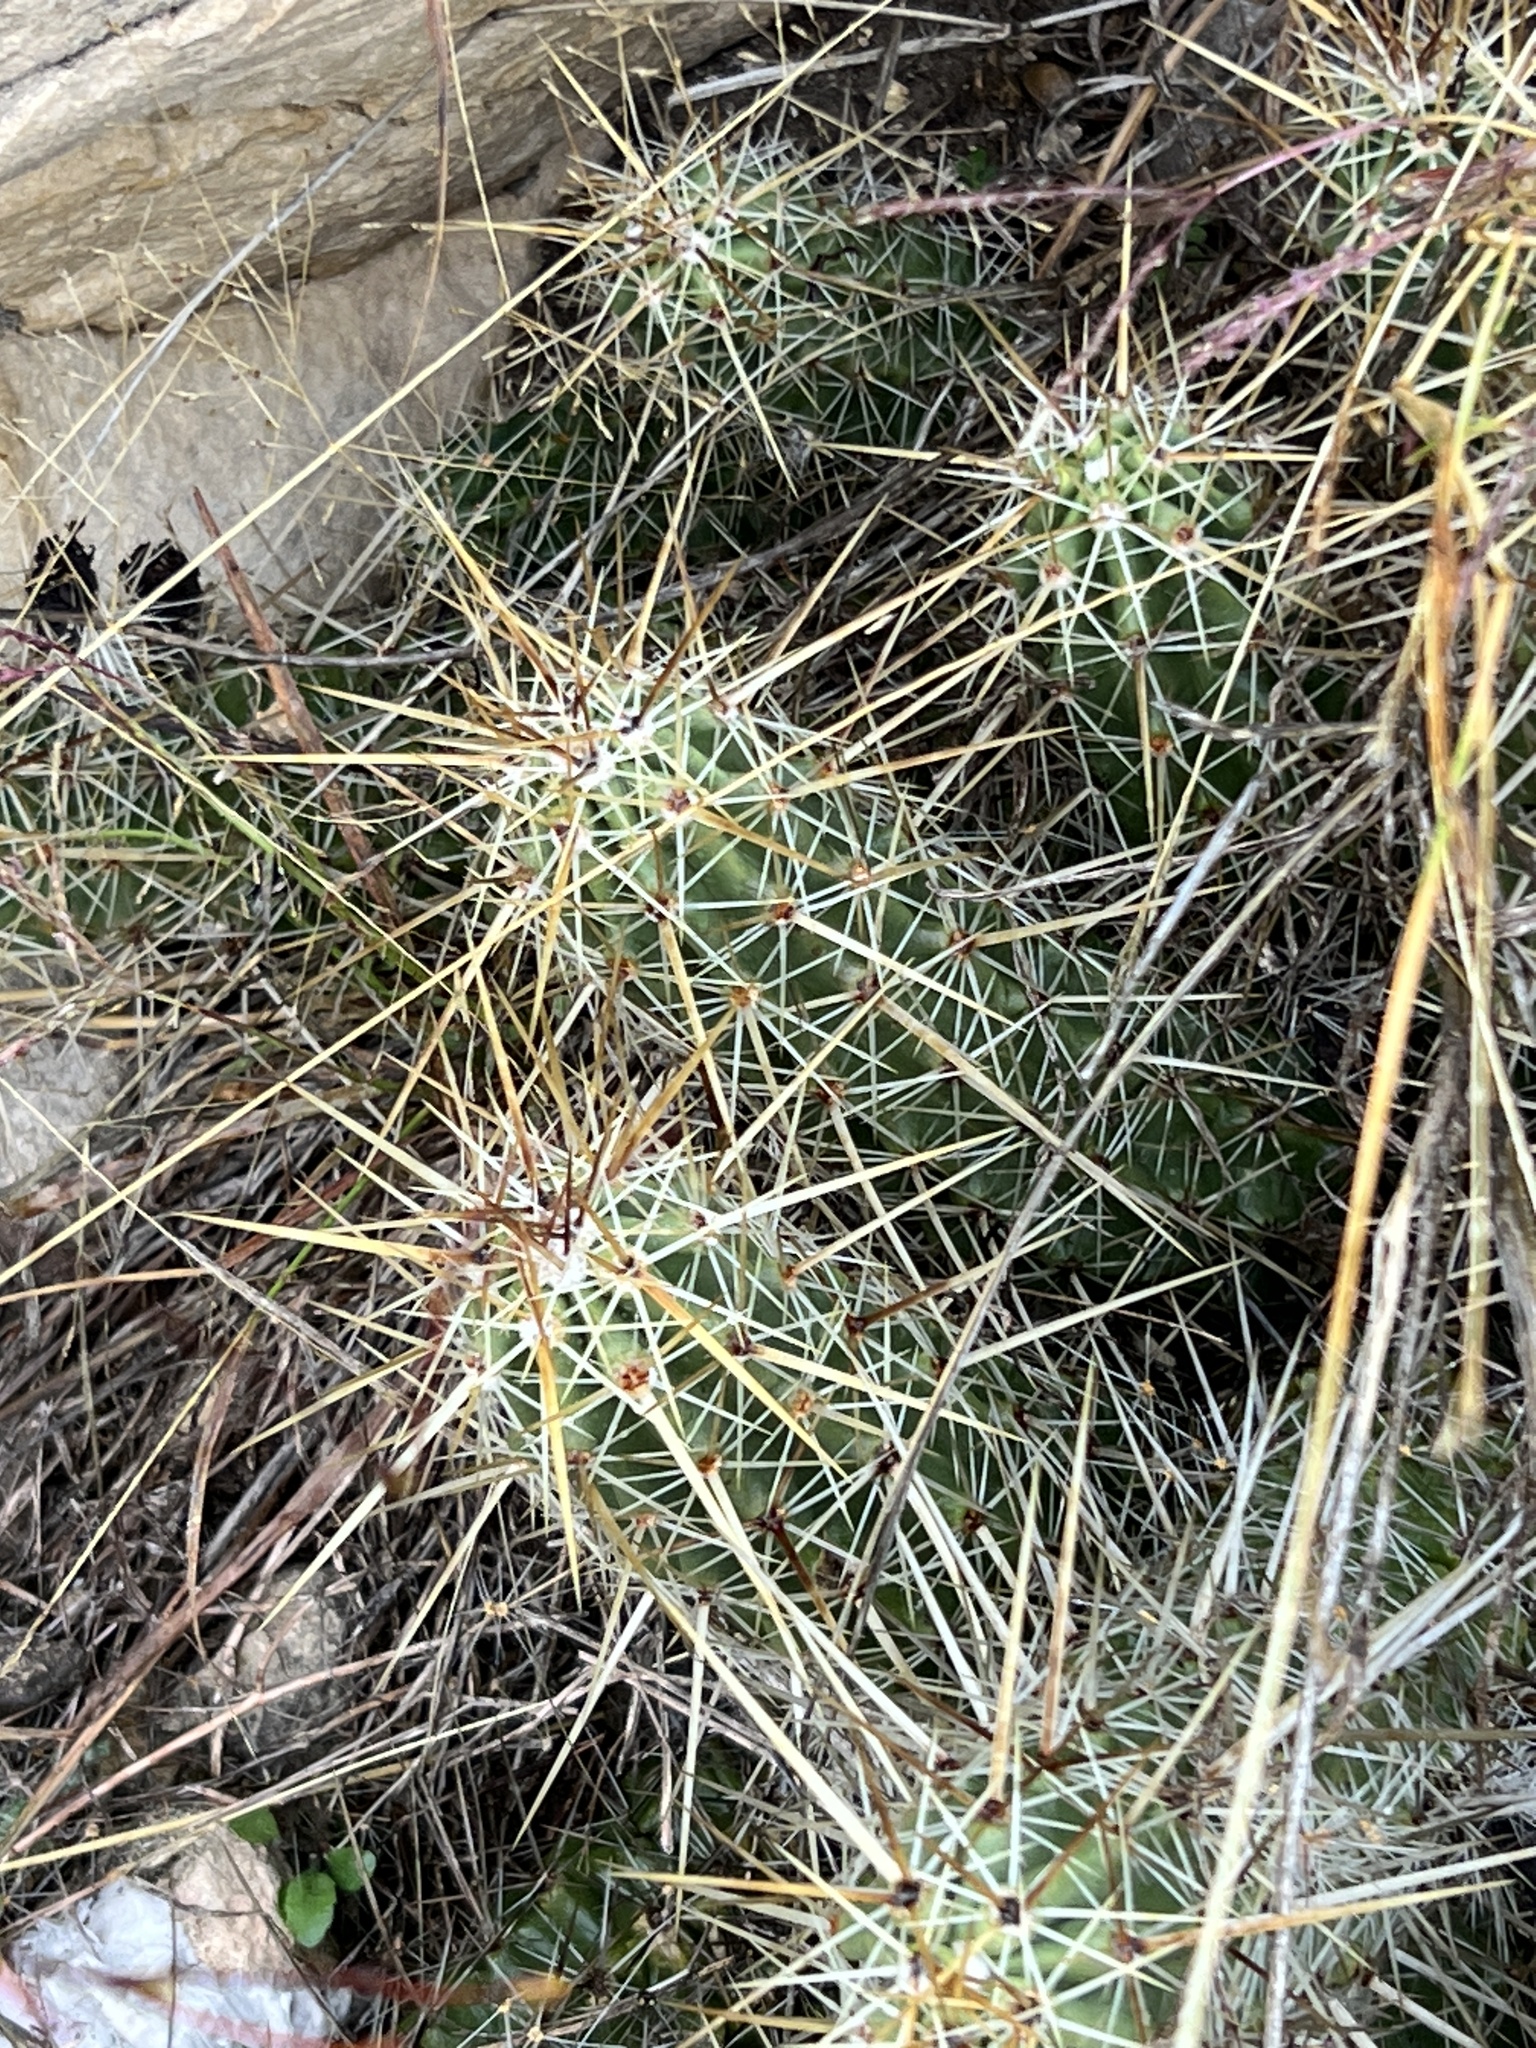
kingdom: Plantae
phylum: Tracheophyta
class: Magnoliopsida
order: Caryophyllales
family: Cactaceae
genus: Echinocereus
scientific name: Echinocereus enneacanthus
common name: Pitaya
